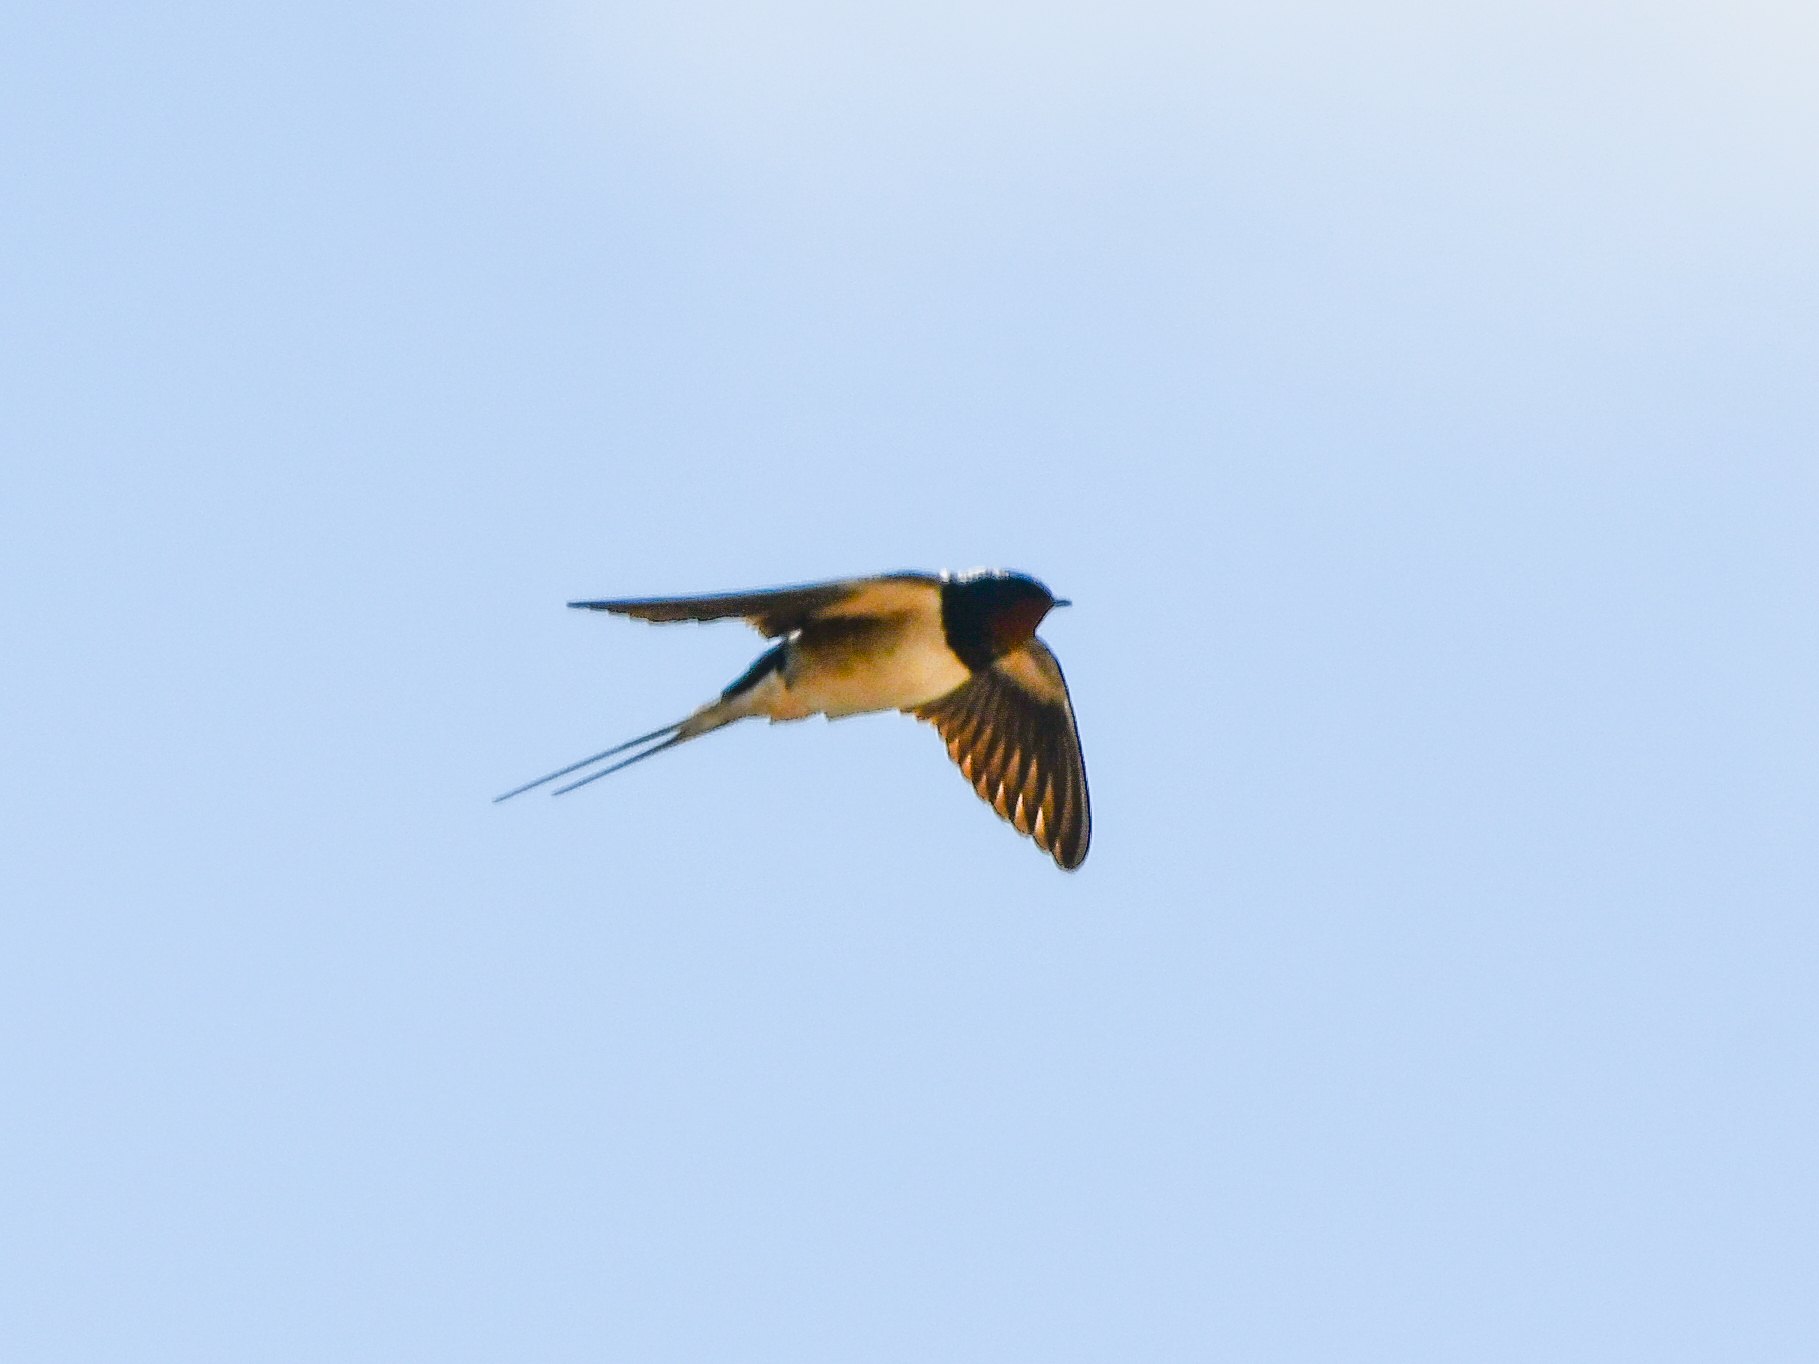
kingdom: Animalia
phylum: Chordata
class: Aves
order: Passeriformes
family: Hirundinidae
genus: Hirundo
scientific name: Hirundo rustica
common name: Barn swallow
